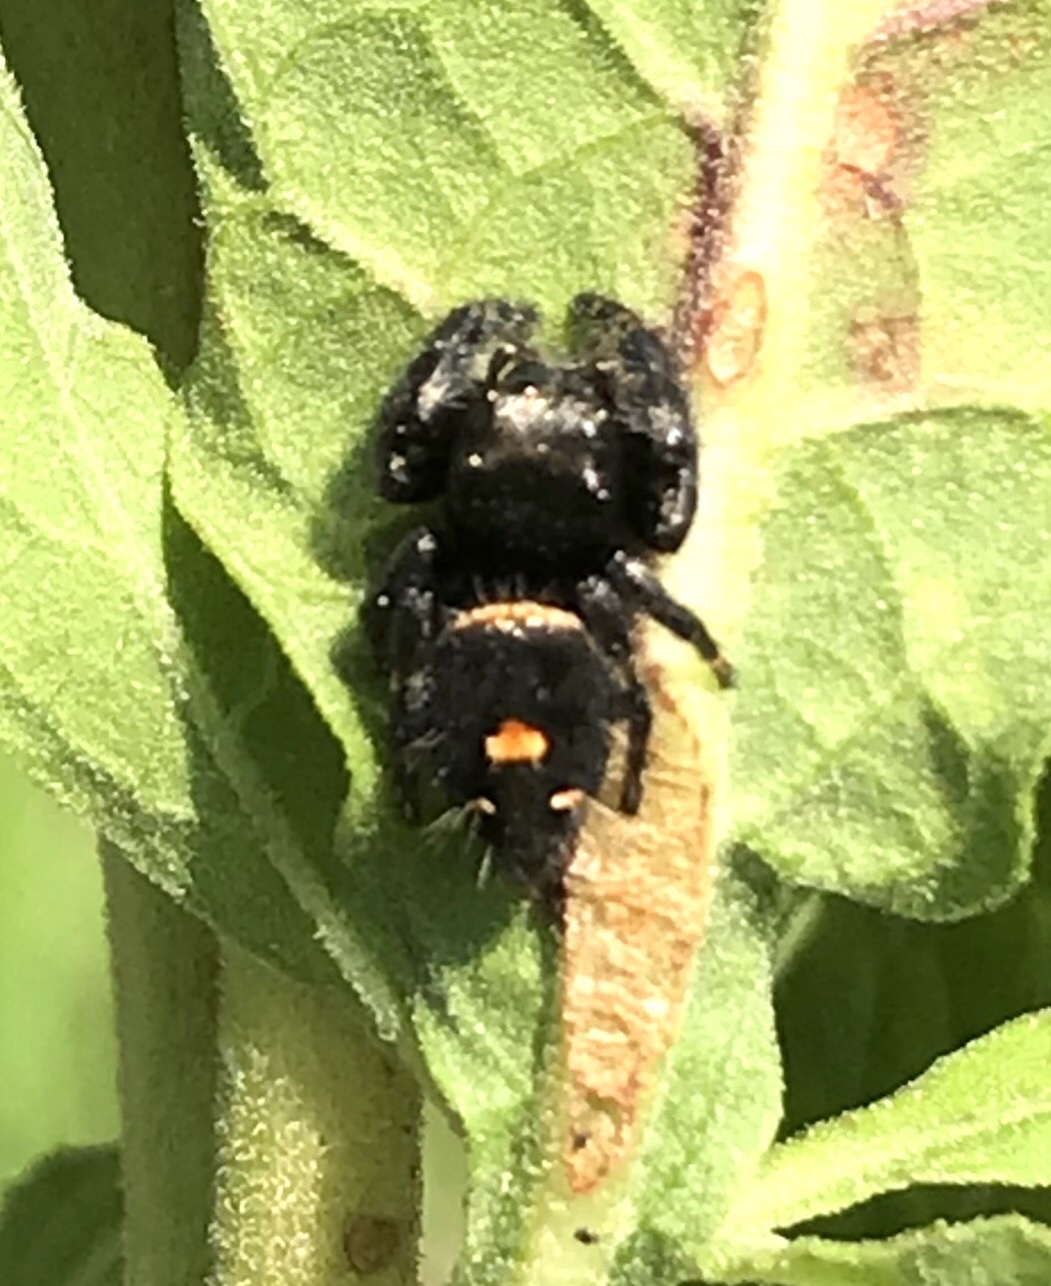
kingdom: Animalia
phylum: Arthropoda
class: Arachnida
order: Araneae
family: Salticidae
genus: Phidippus
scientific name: Phidippus audax
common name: Bold jumper
